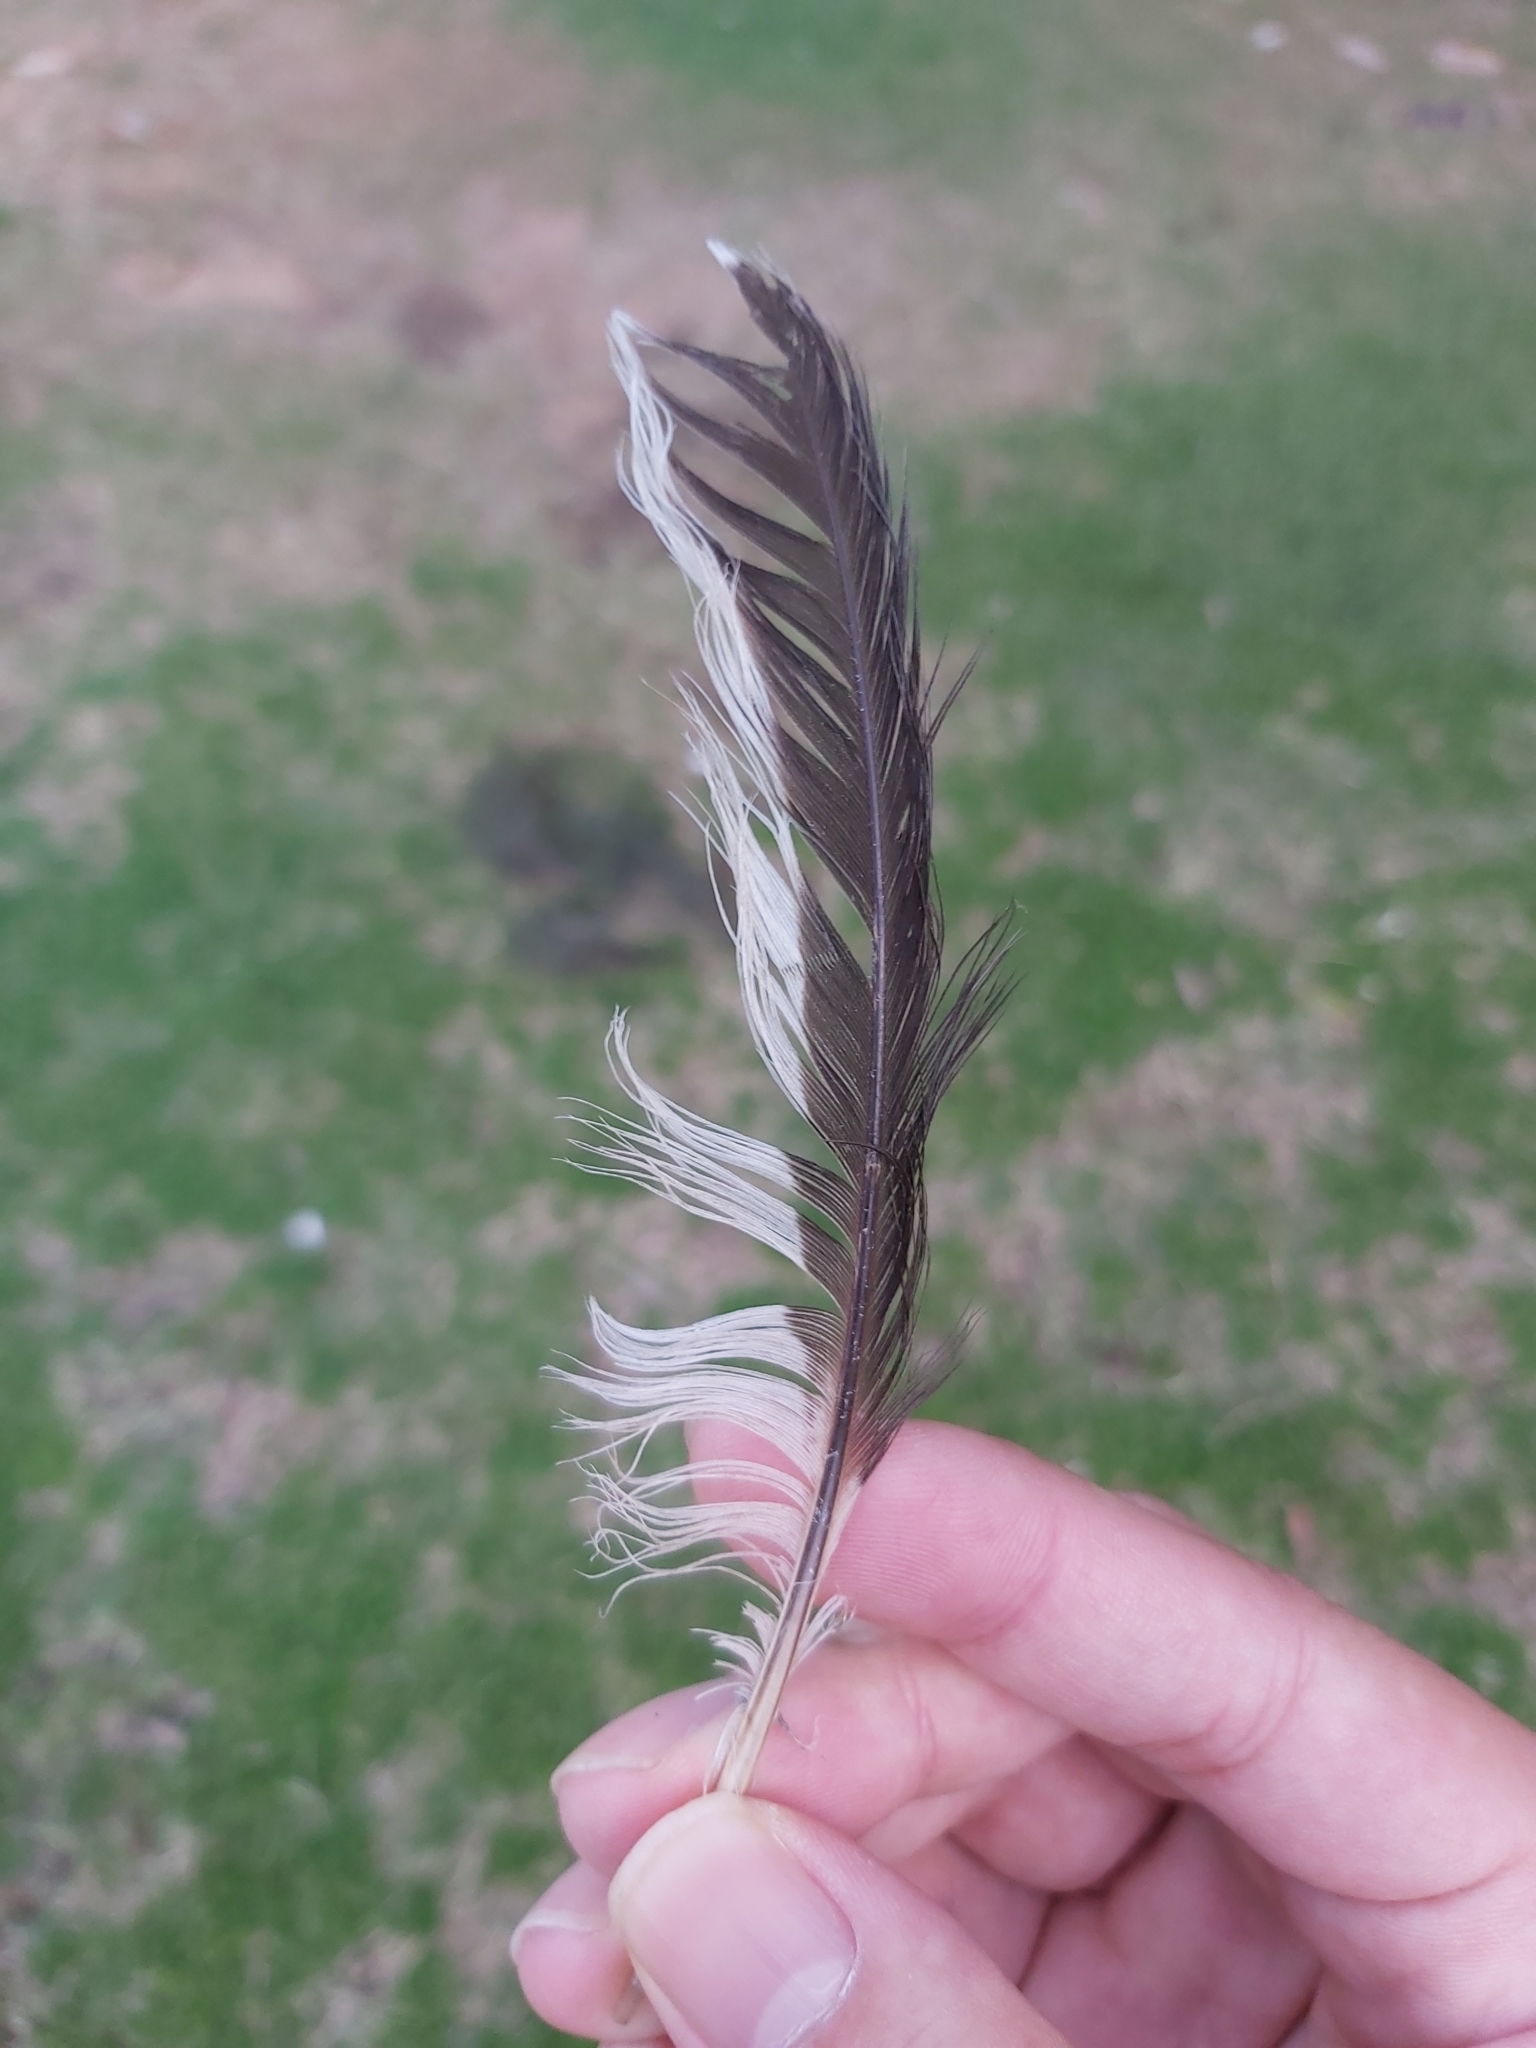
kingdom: Animalia
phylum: Chordata
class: Aves
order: Passeriformes
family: Meliphagidae
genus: Manorina
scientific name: Manorina melanocephala
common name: Noisy miner
